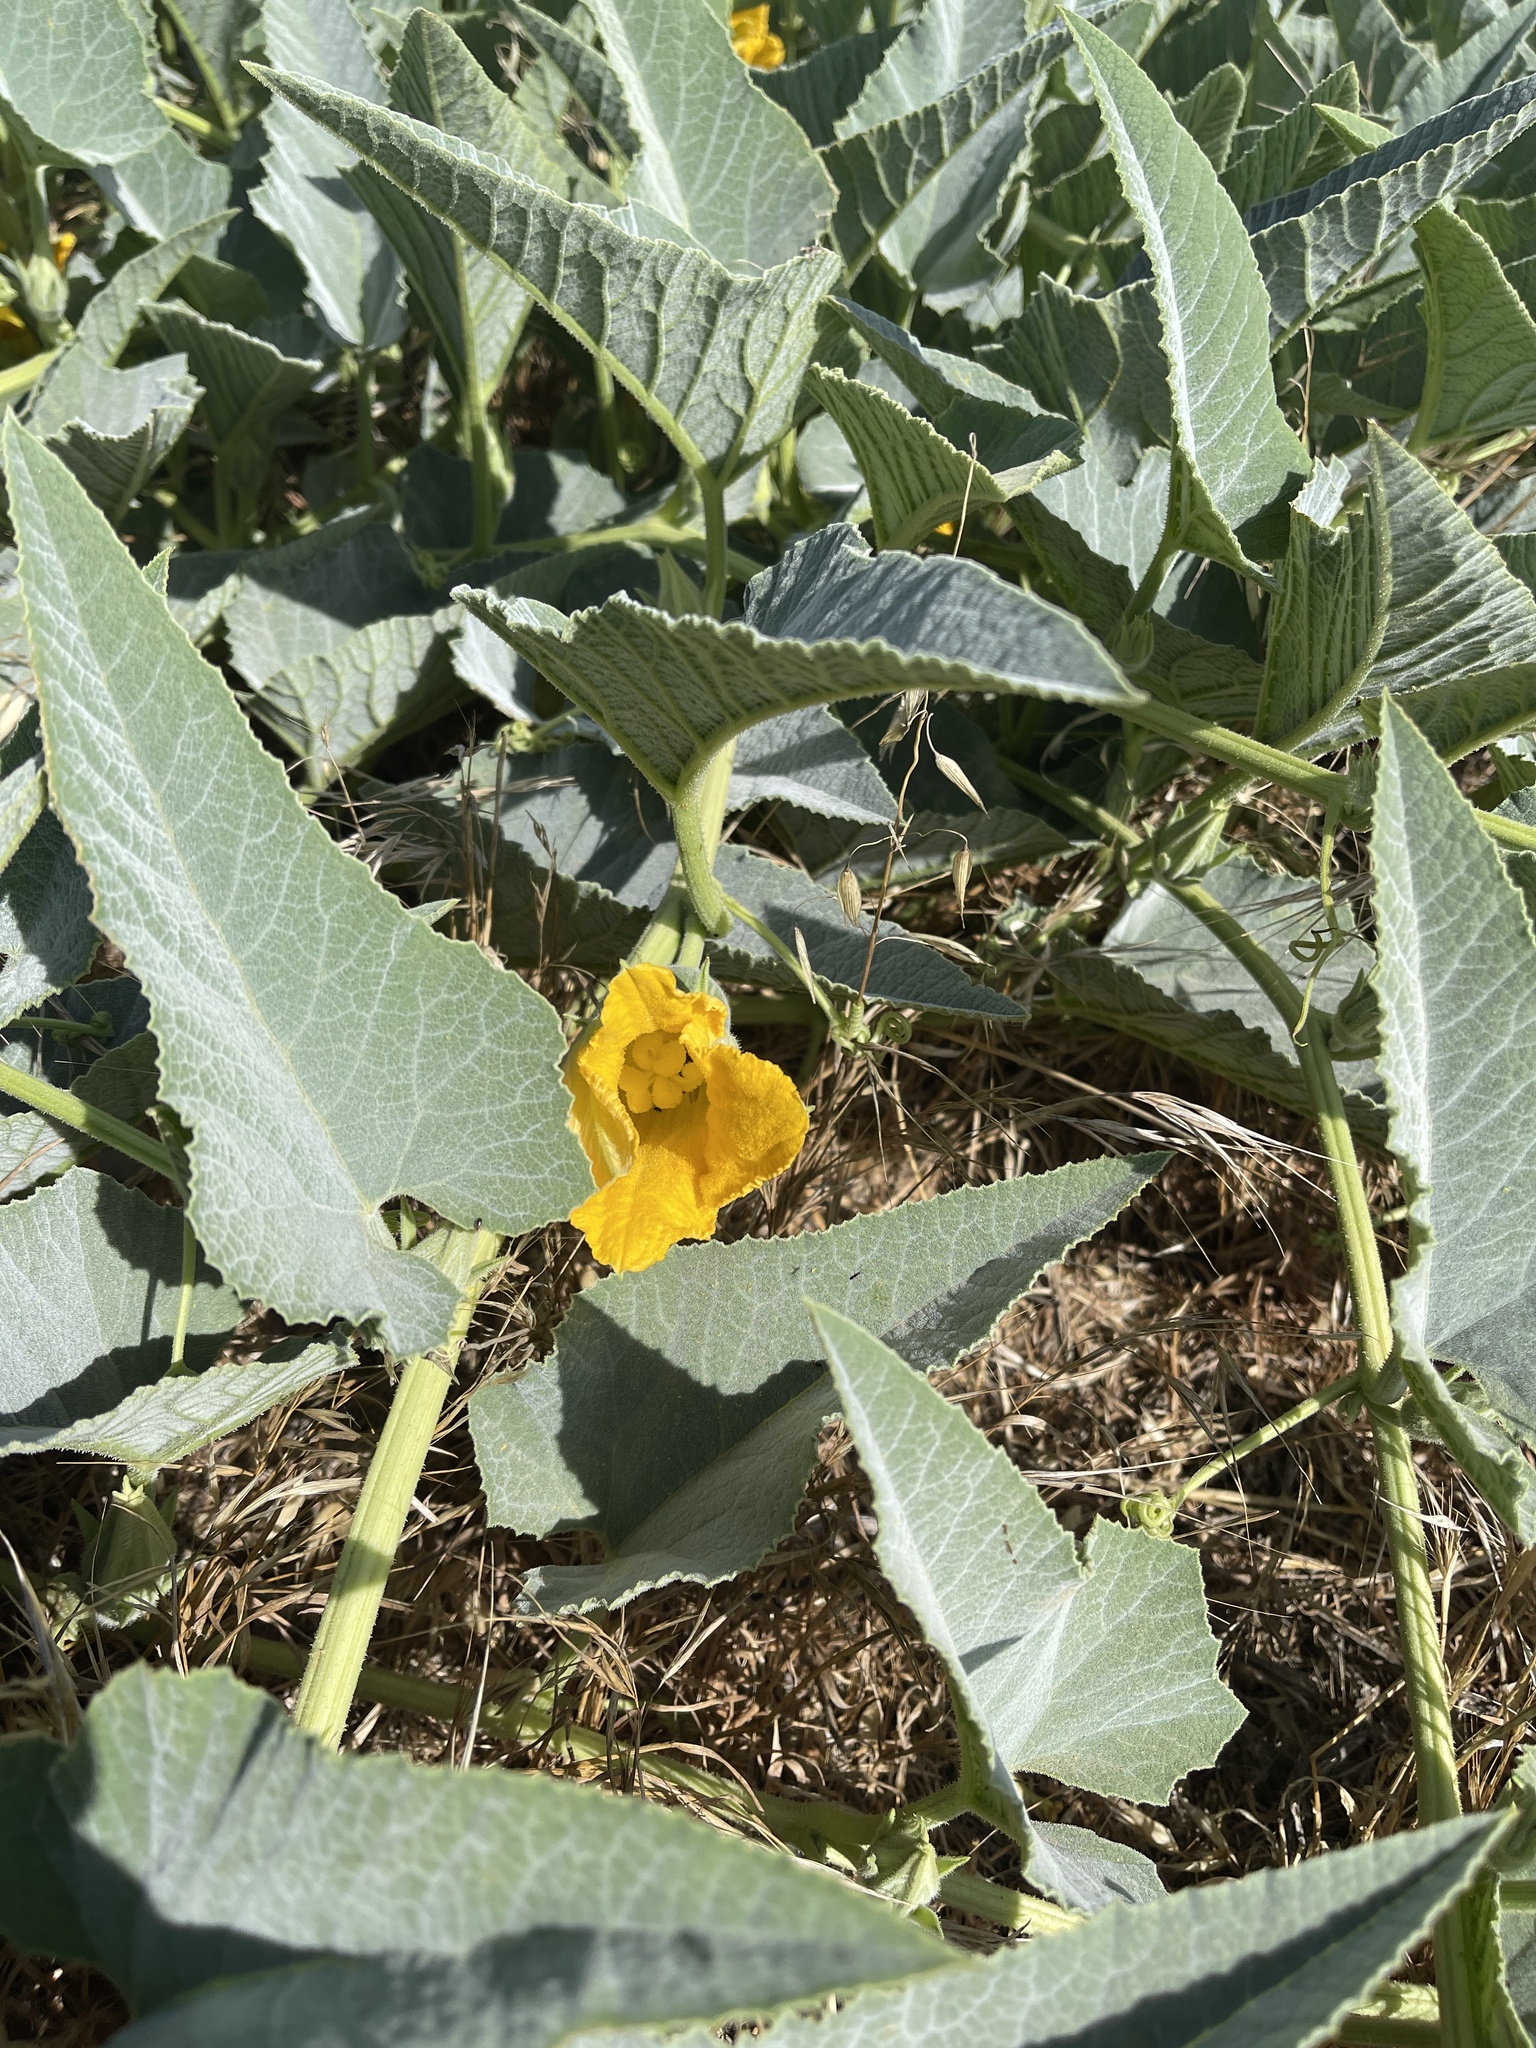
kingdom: Plantae
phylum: Tracheophyta
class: Magnoliopsida
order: Cucurbitales
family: Cucurbitaceae
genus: Cucurbita
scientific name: Cucurbita foetidissima
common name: Buffalo gourd
